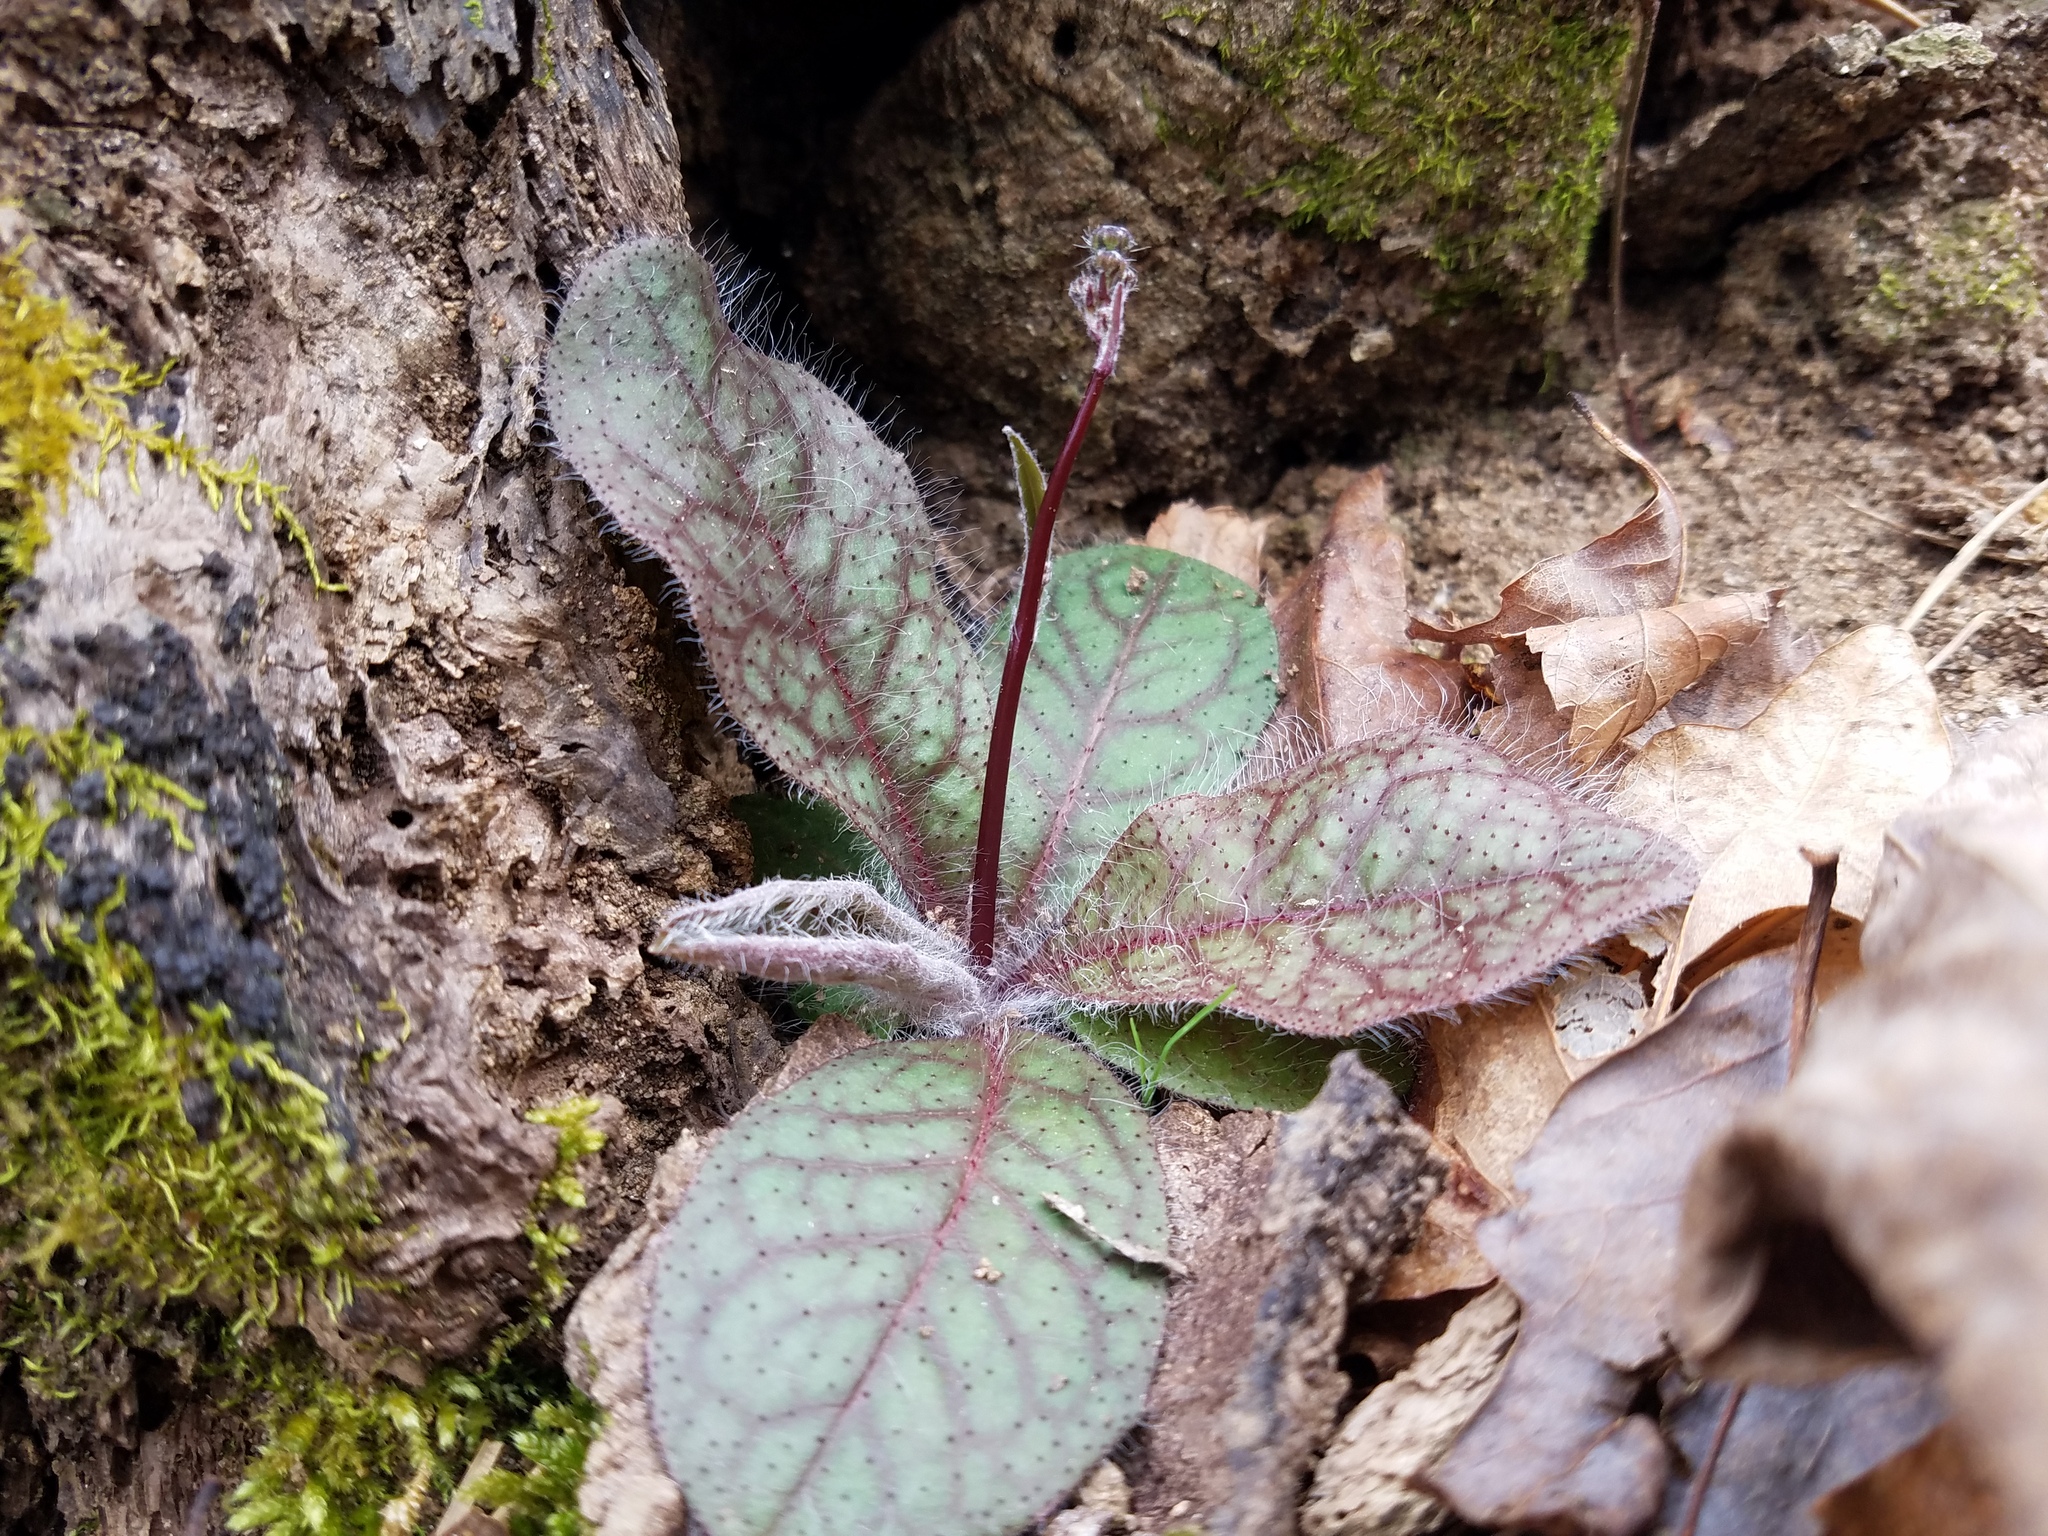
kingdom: Plantae
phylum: Tracheophyta
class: Magnoliopsida
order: Asterales
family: Asteraceae
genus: Hieracium
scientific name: Hieracium venosum
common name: Rattlesnake hawkweed
